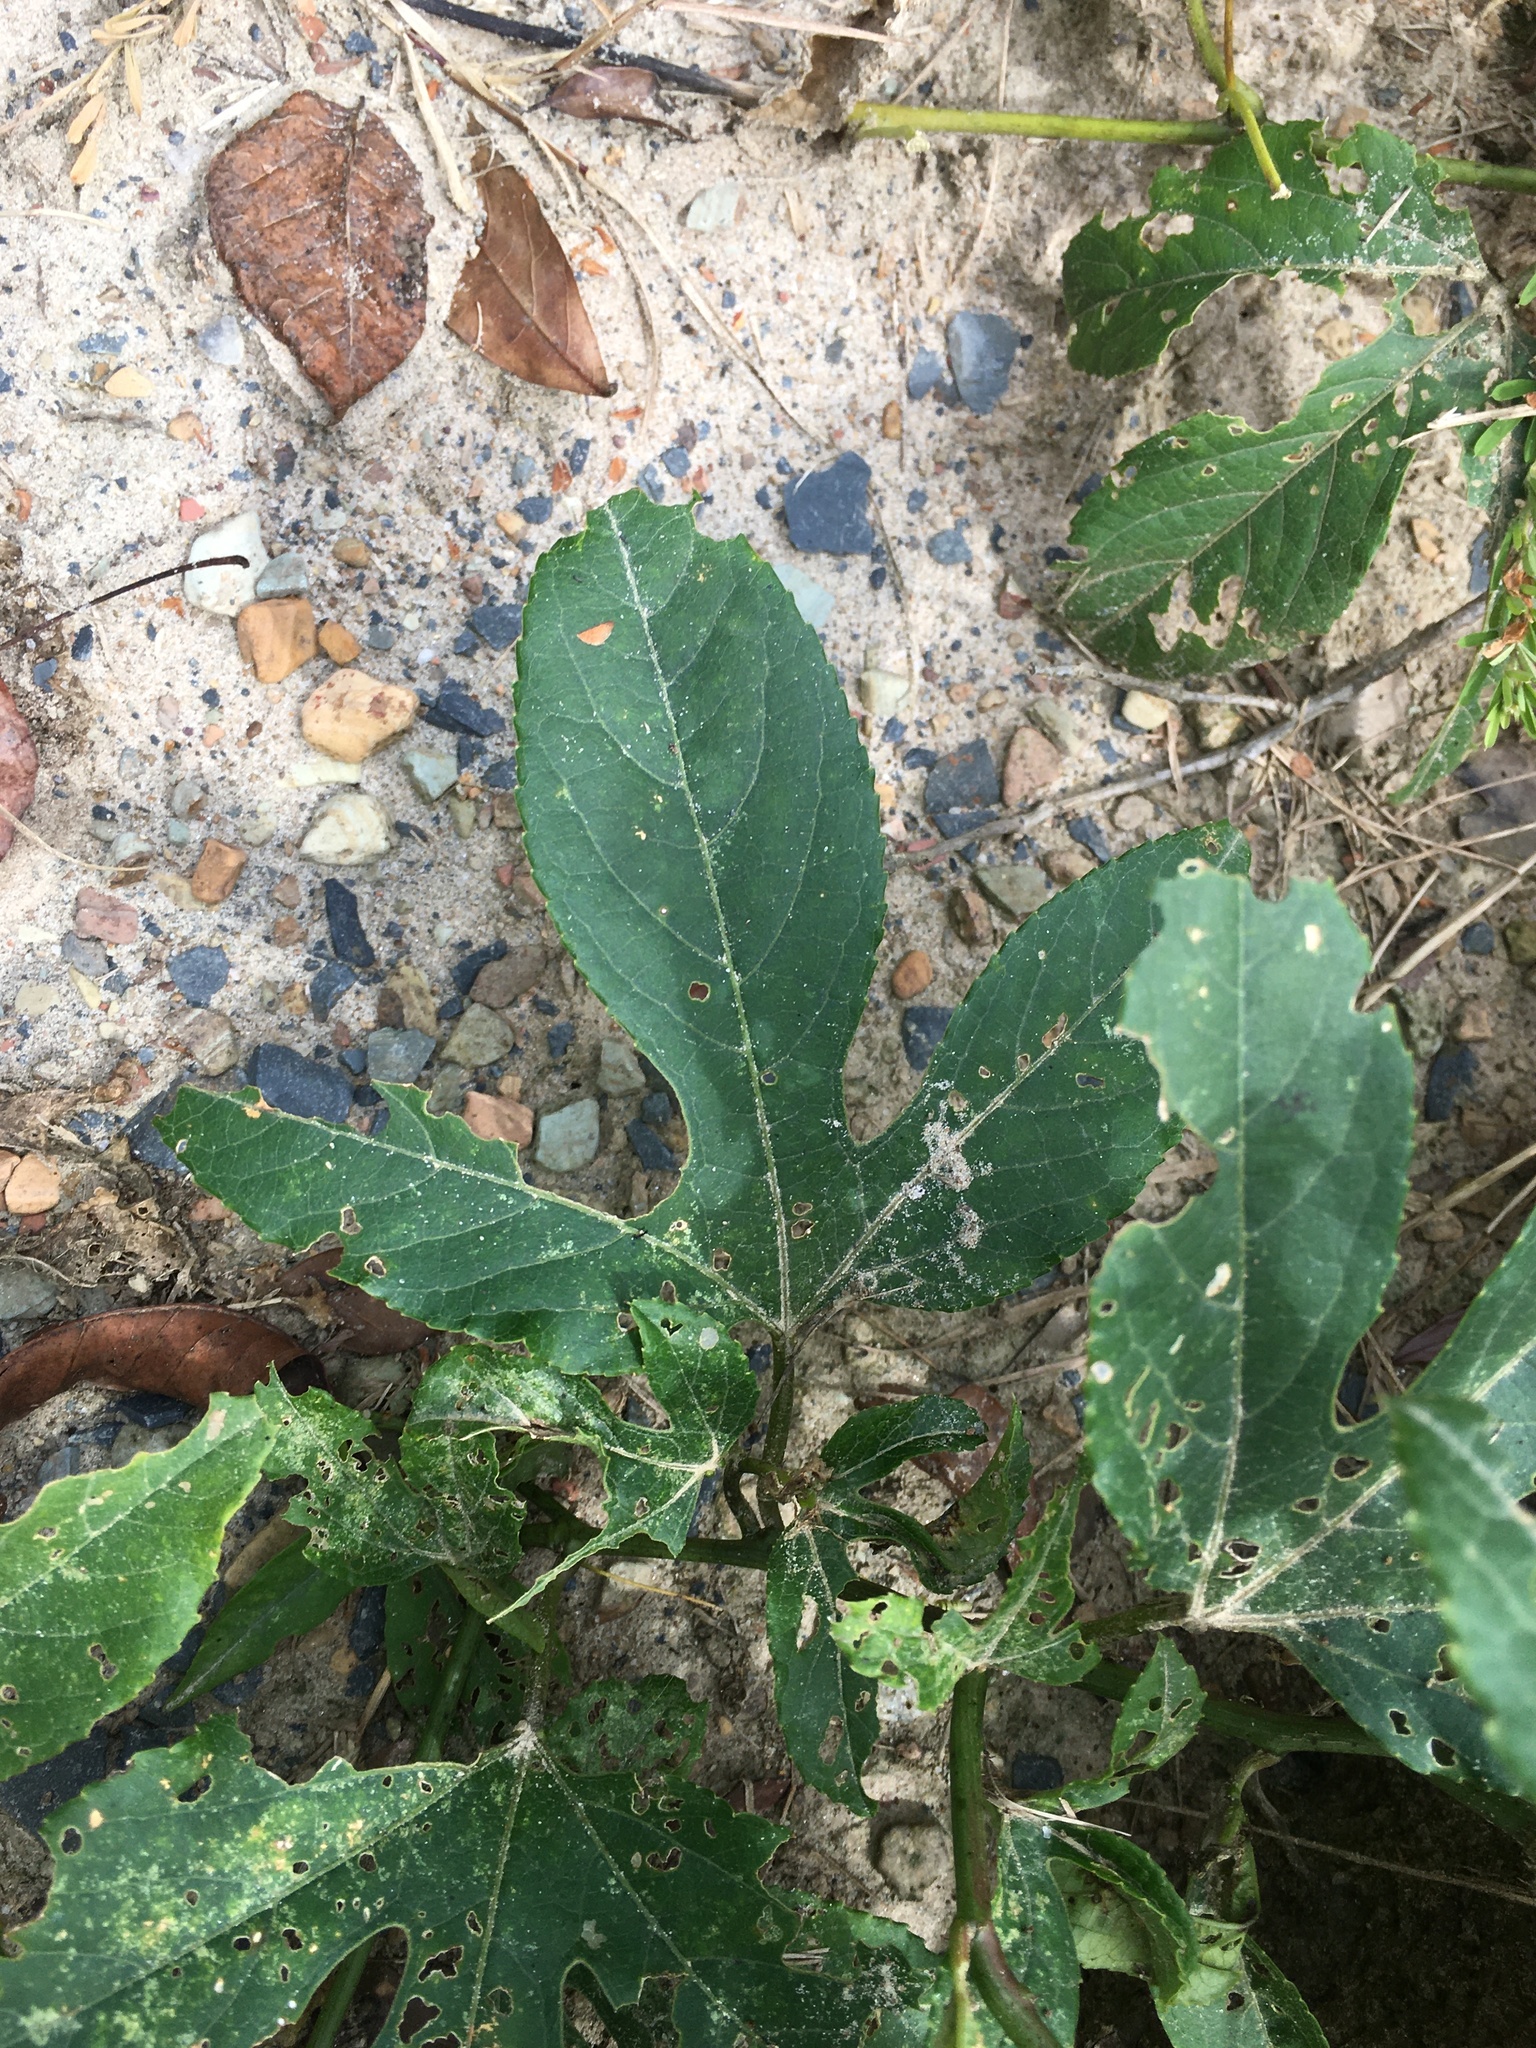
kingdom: Plantae
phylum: Tracheophyta
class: Magnoliopsida
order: Malpighiales
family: Passifloraceae
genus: Passiflora
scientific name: Passiflora incarnata
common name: Apricot-vine
